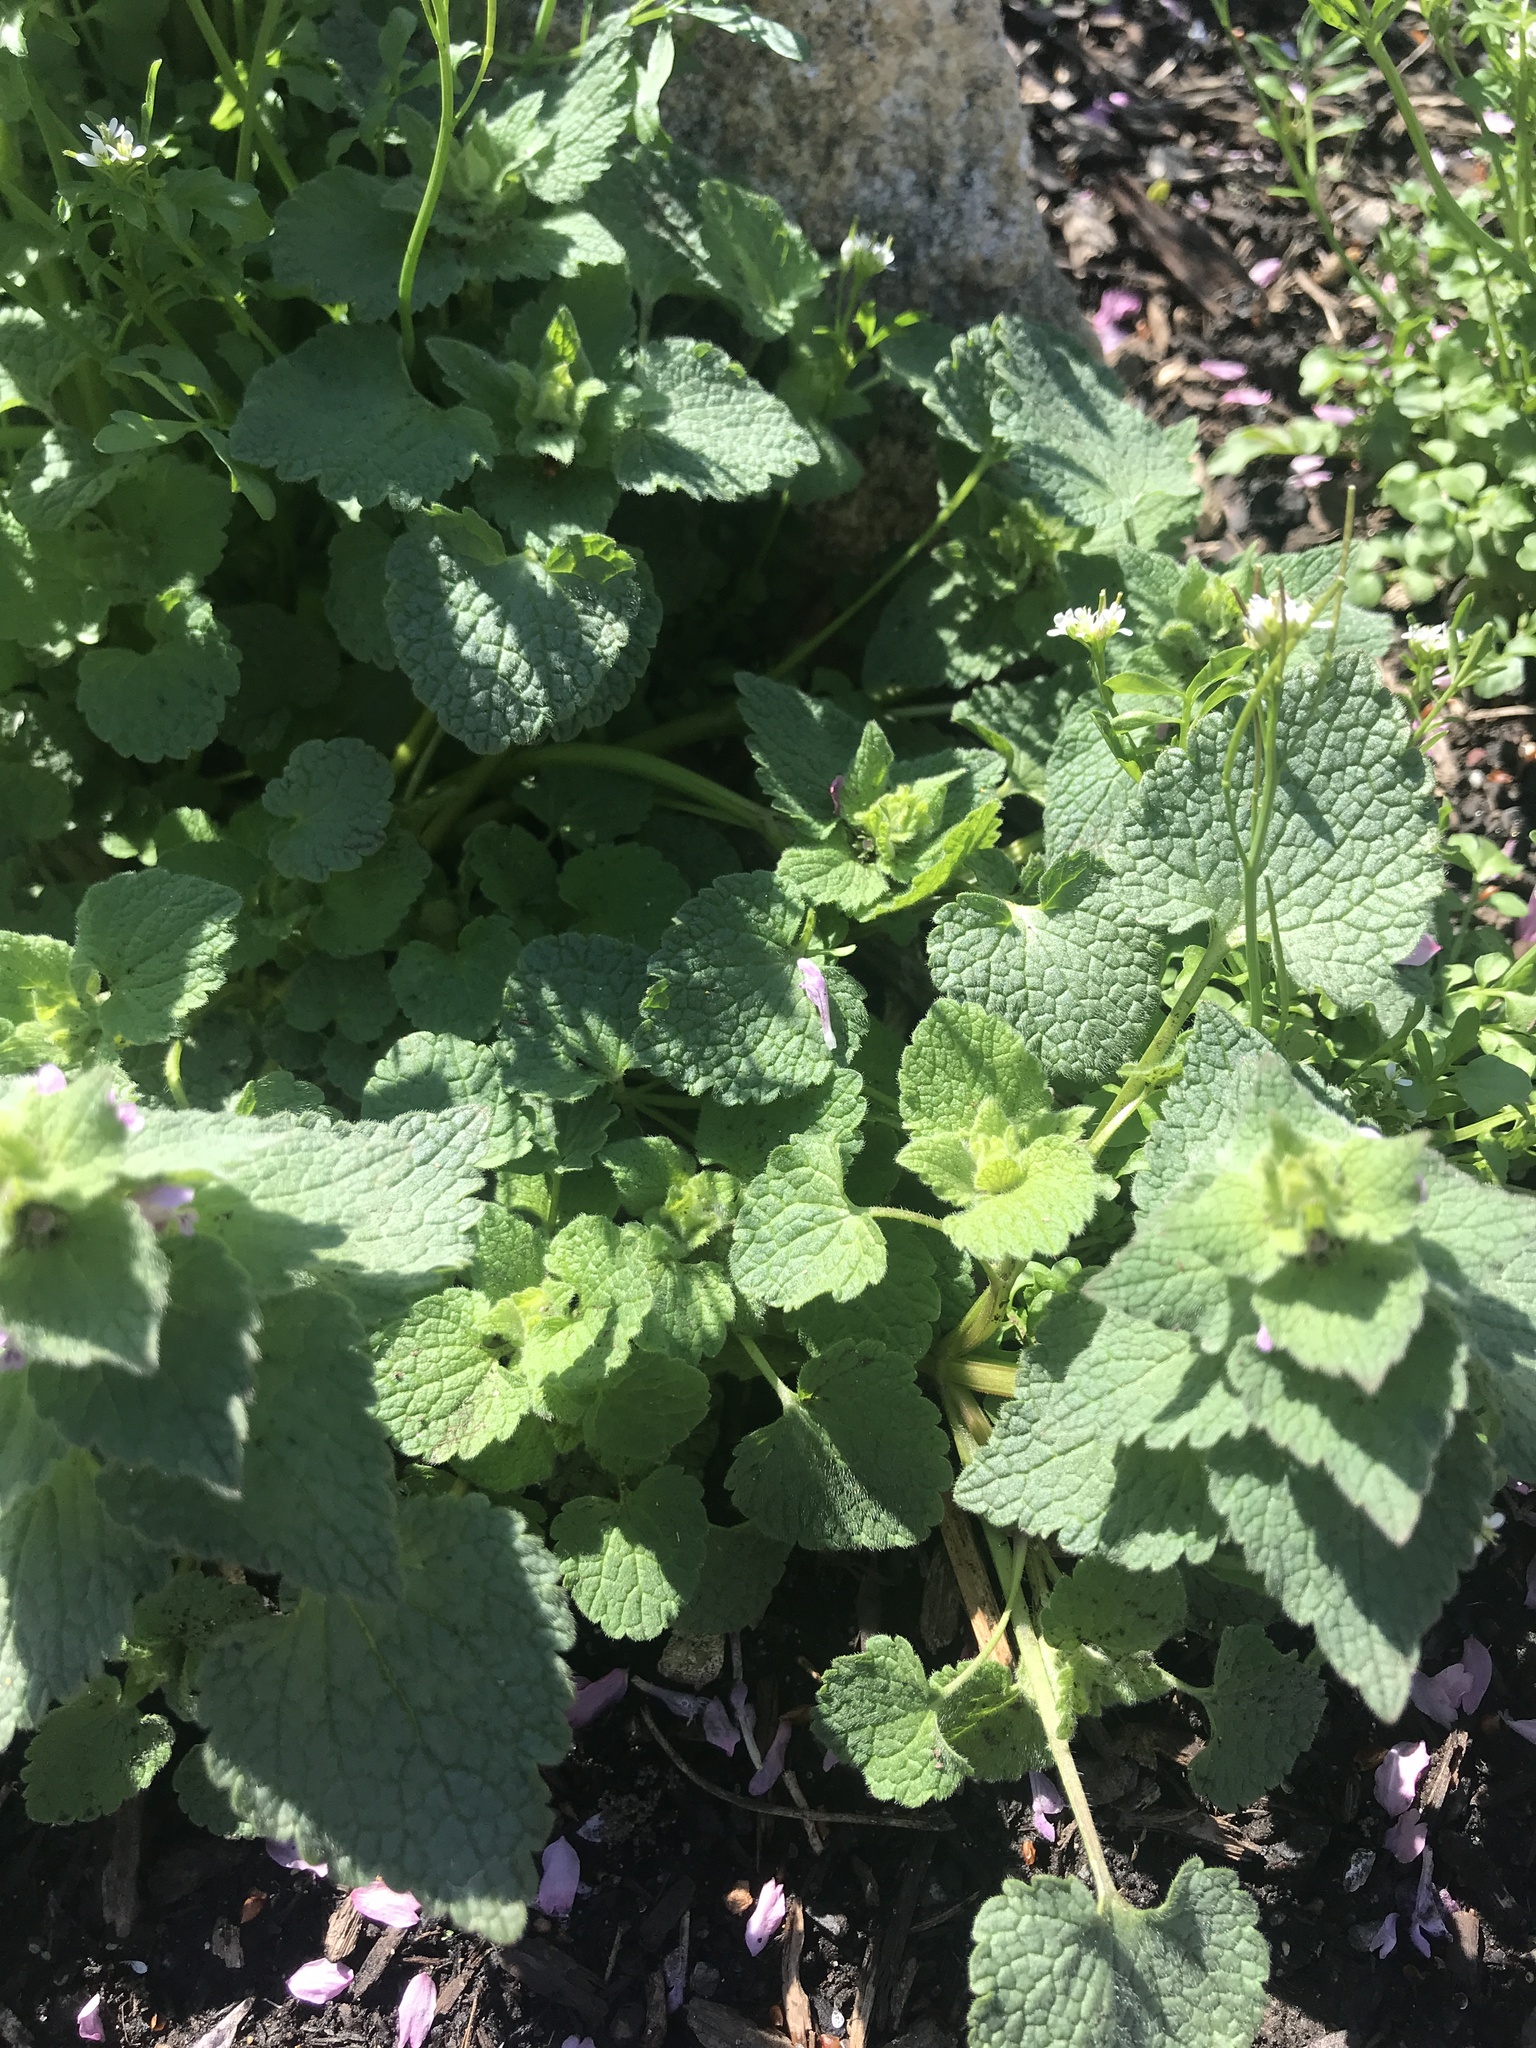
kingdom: Plantae
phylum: Tracheophyta
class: Magnoliopsida
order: Lamiales
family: Lamiaceae
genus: Lamium
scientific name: Lamium purpureum
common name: Red dead-nettle
